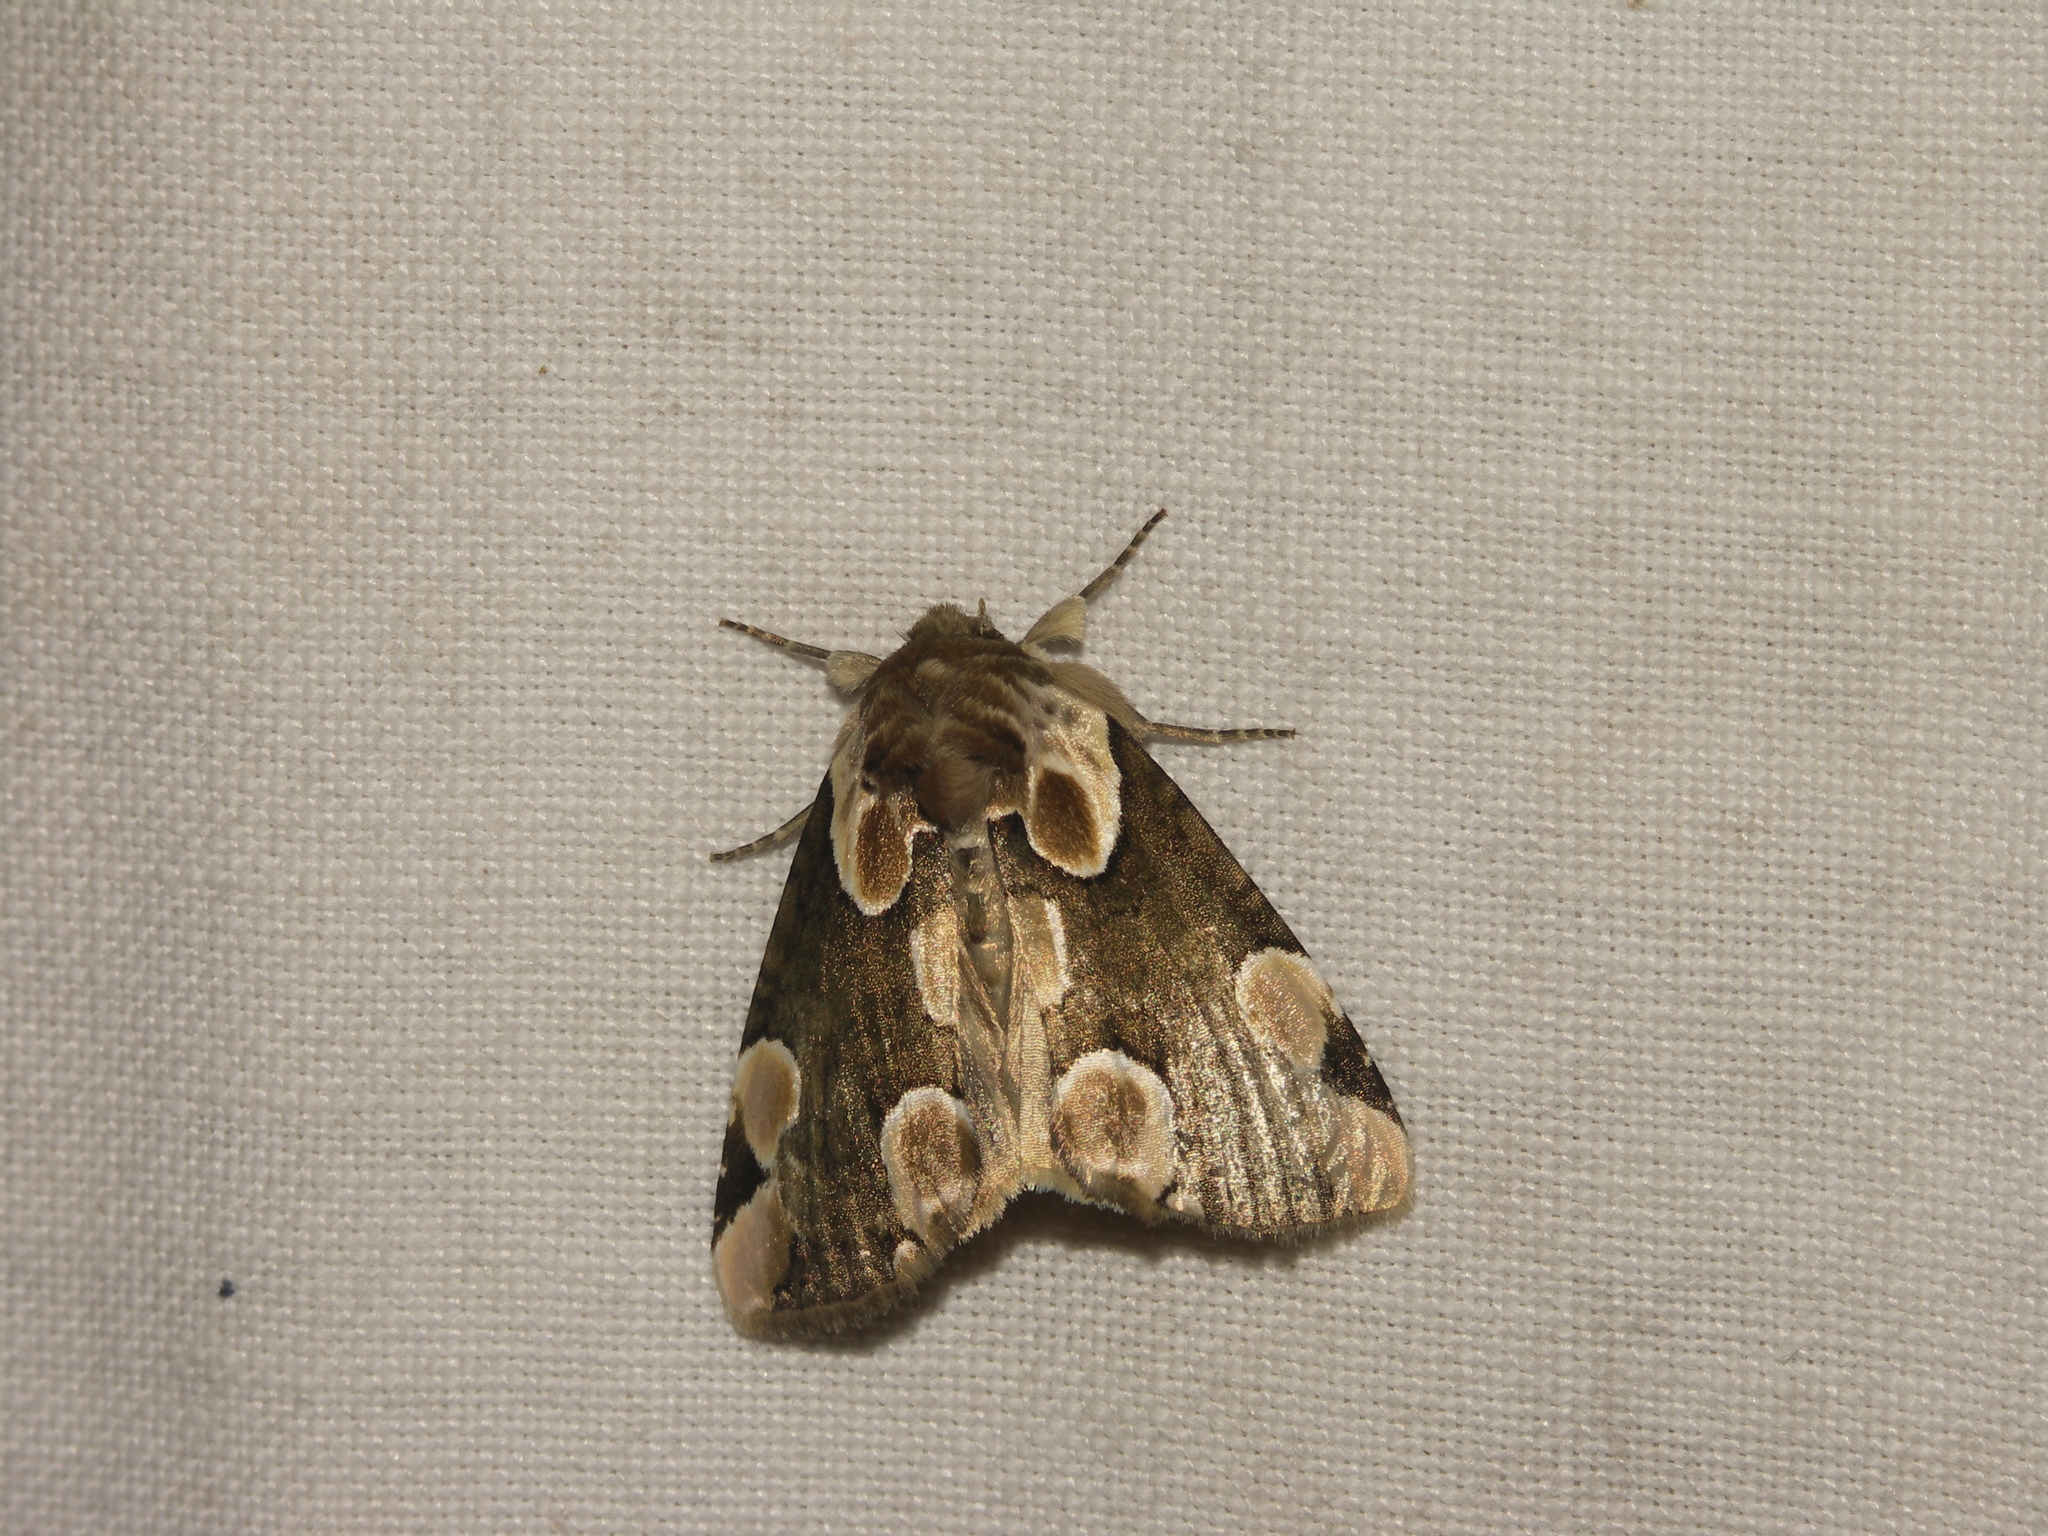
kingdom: Animalia
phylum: Arthropoda
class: Insecta
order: Lepidoptera
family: Drepanidae
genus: Thyatira
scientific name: Thyatira batis
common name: Peach blossom
